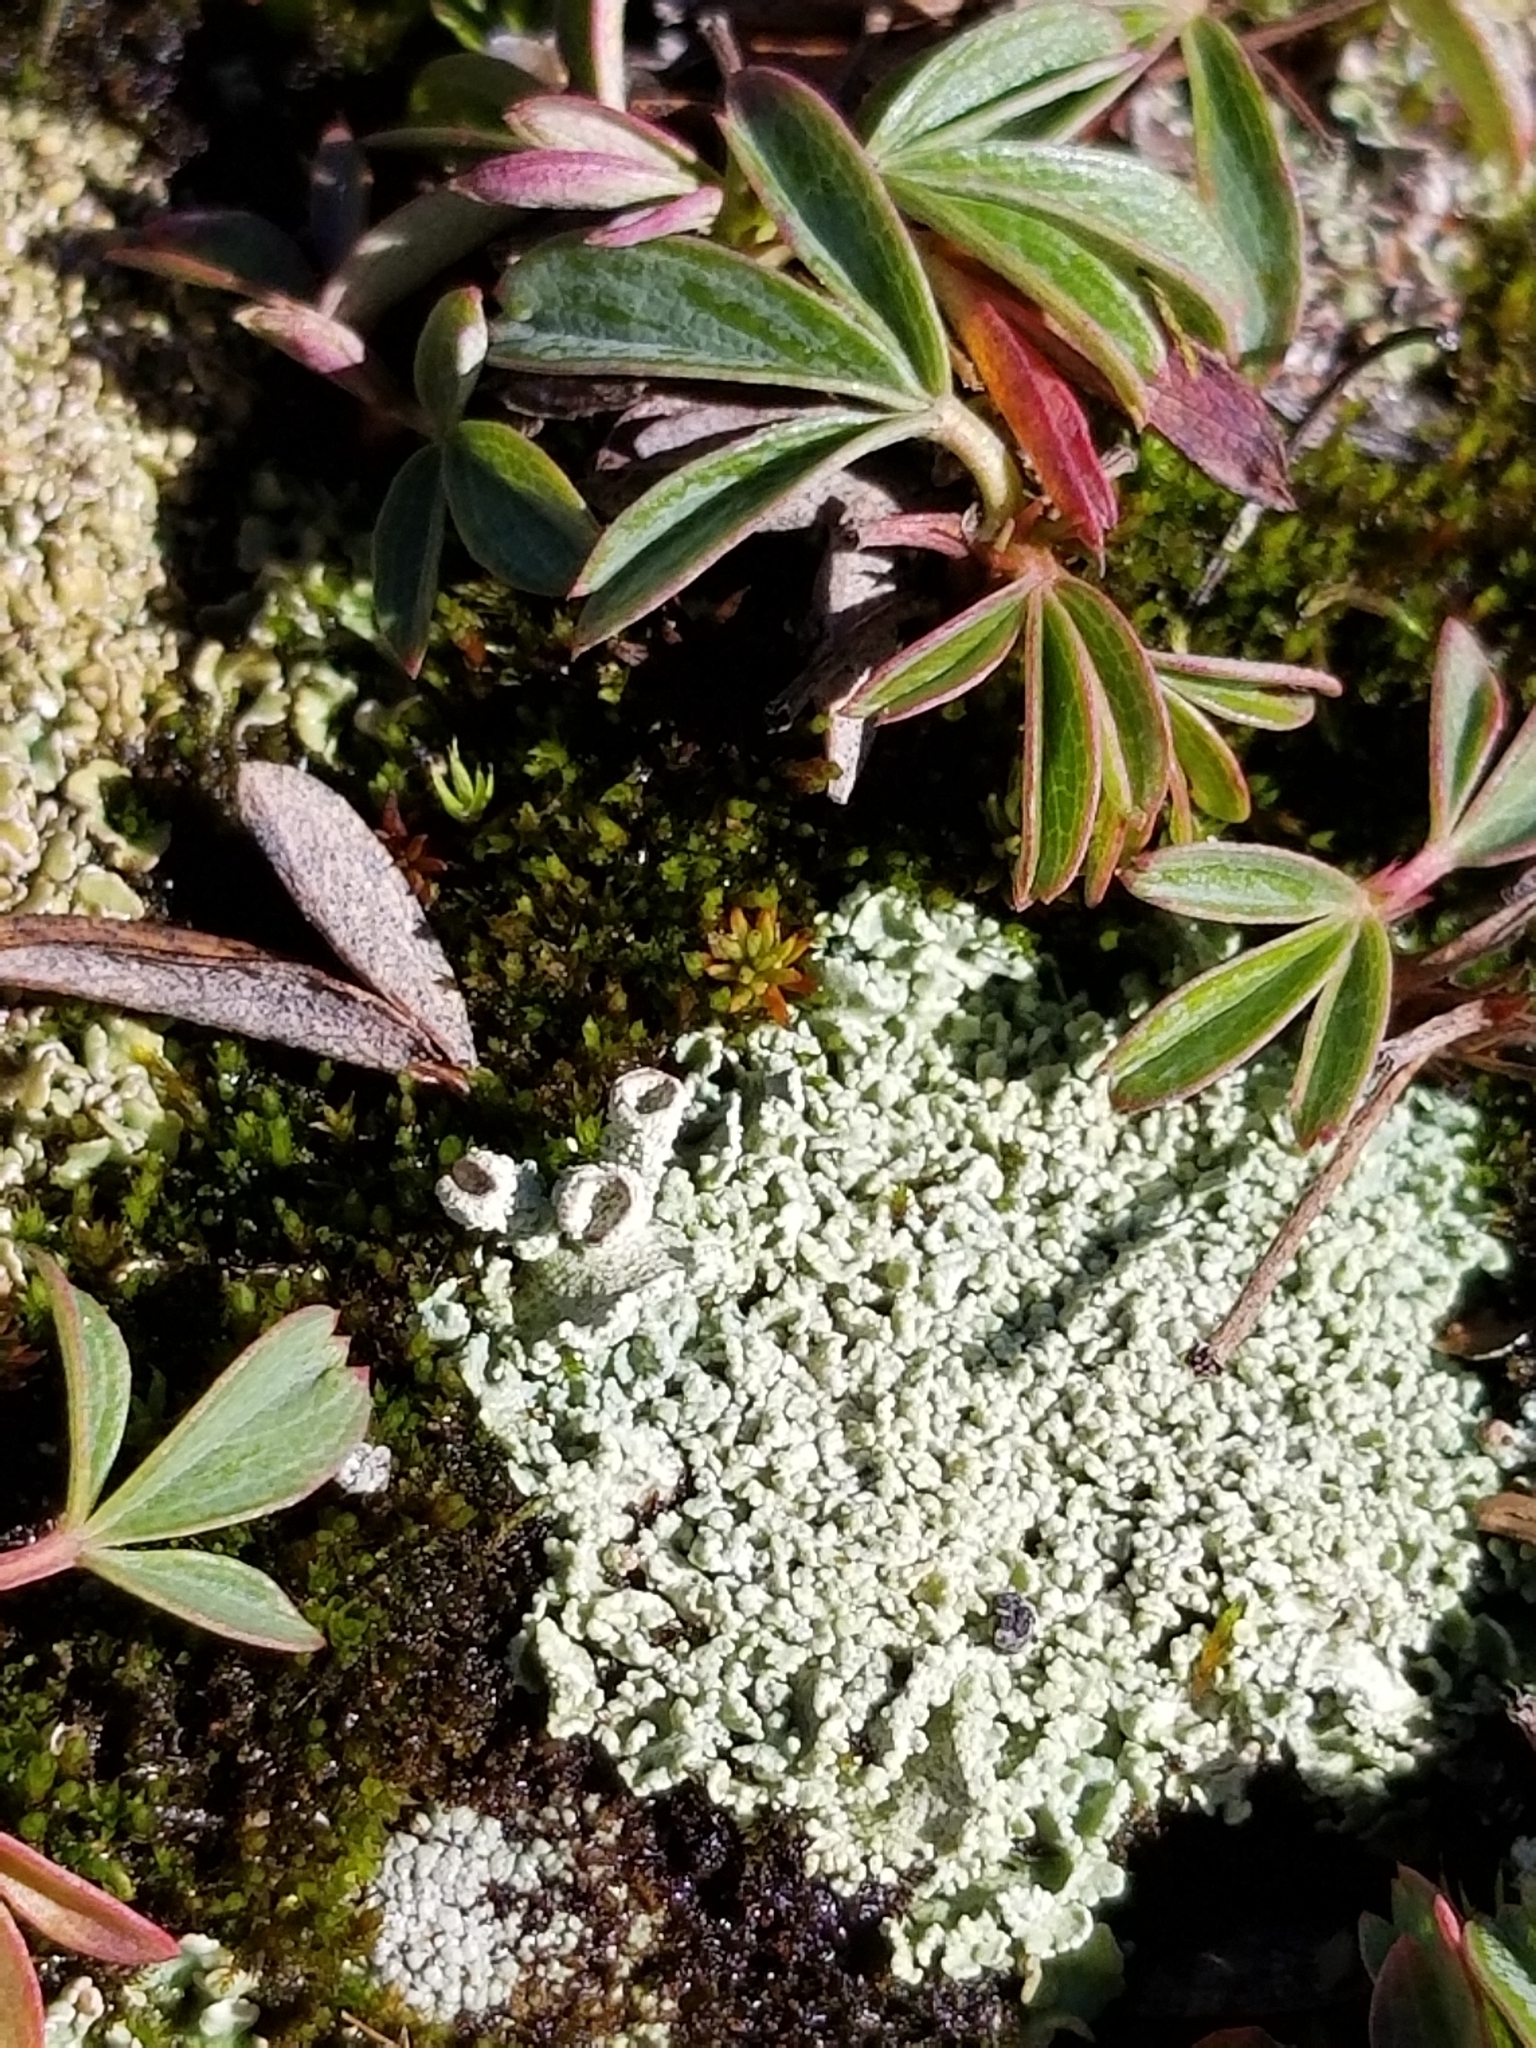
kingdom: Plantae
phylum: Tracheophyta
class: Magnoliopsida
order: Rosales
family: Rosaceae
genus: Sibbaldia
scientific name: Sibbaldia tridentata
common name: Three-toothed cinquefoil
